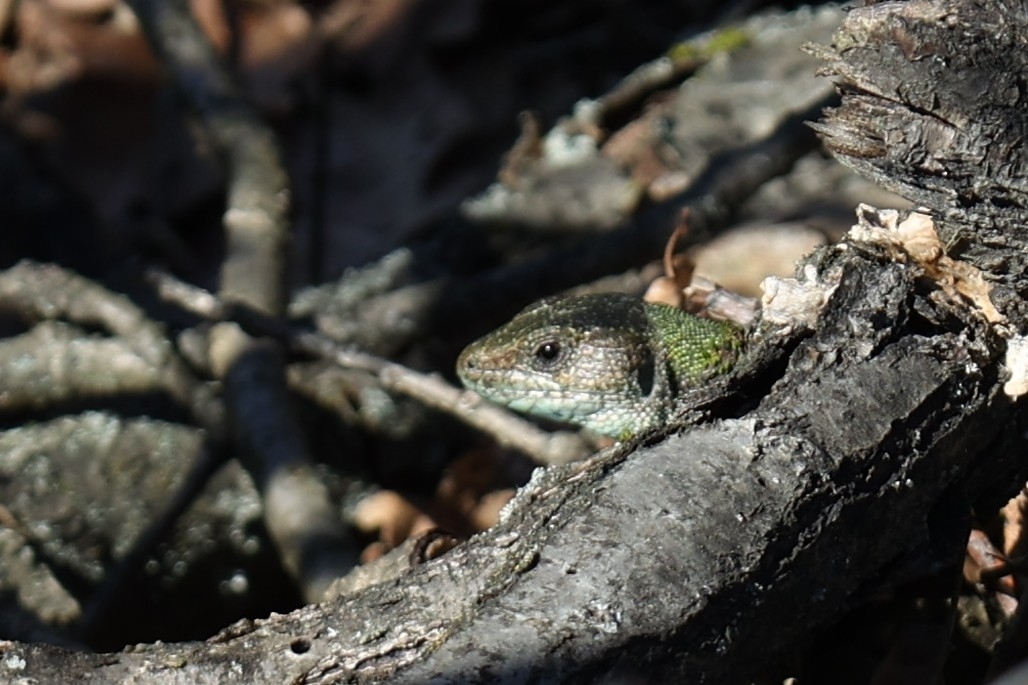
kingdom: Animalia
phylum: Chordata
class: Squamata
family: Lacertidae
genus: Lacerta
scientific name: Lacerta viridis
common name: European green lizard
